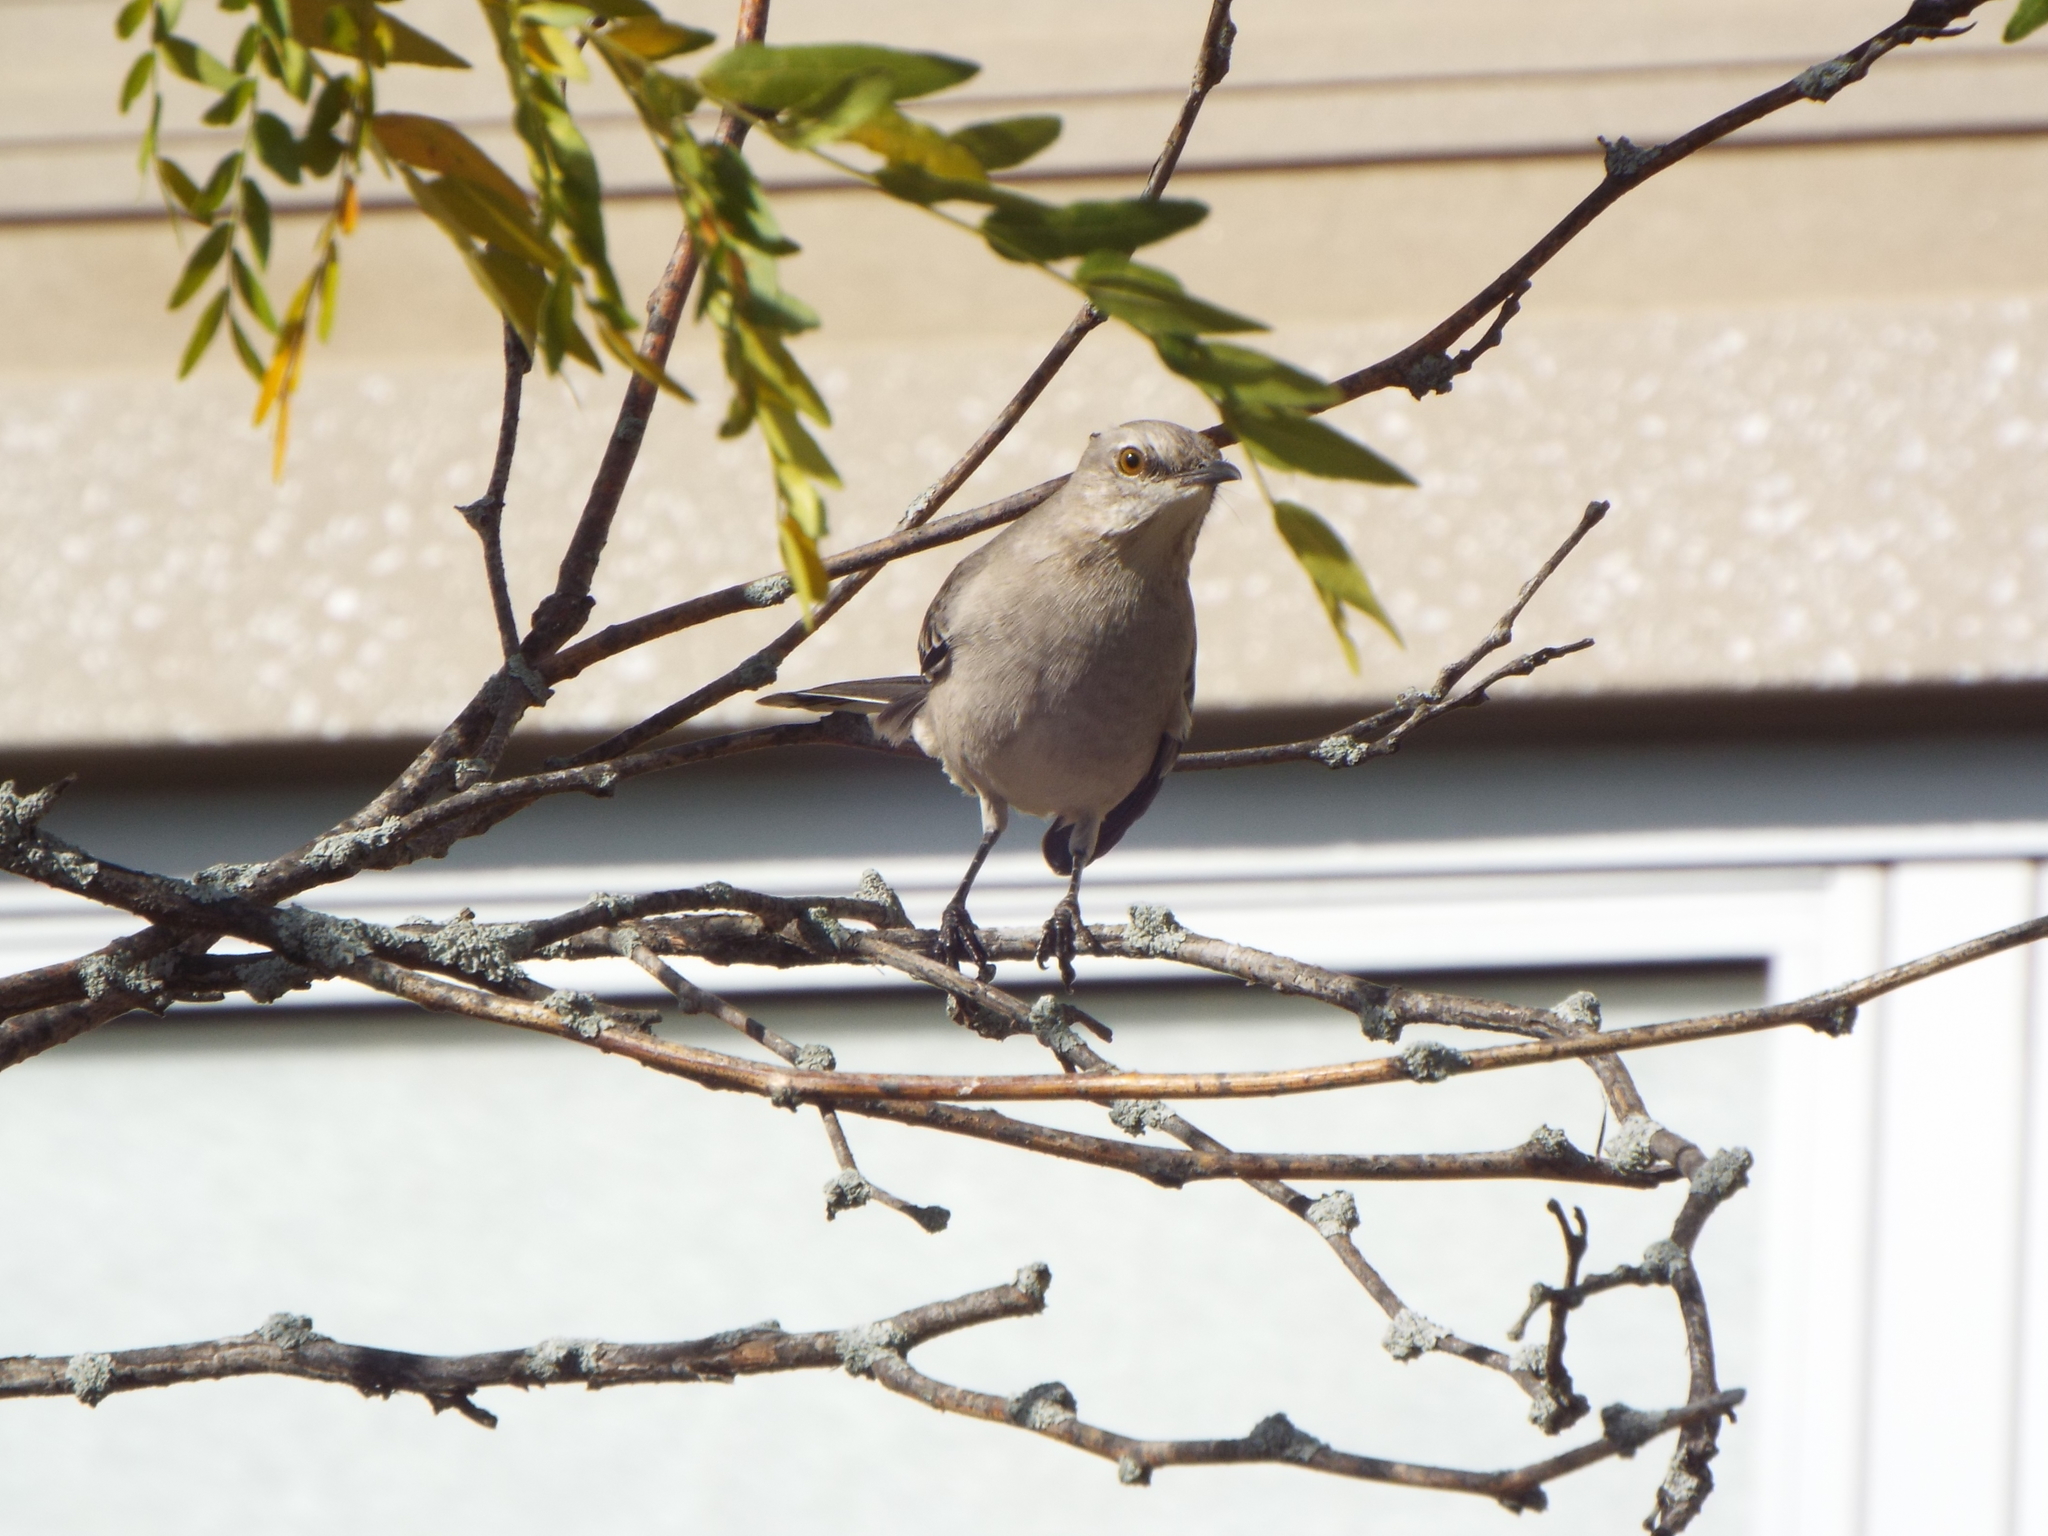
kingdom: Animalia
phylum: Chordata
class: Aves
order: Passeriformes
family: Mimidae
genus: Mimus
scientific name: Mimus polyglottos
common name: Northern mockingbird
